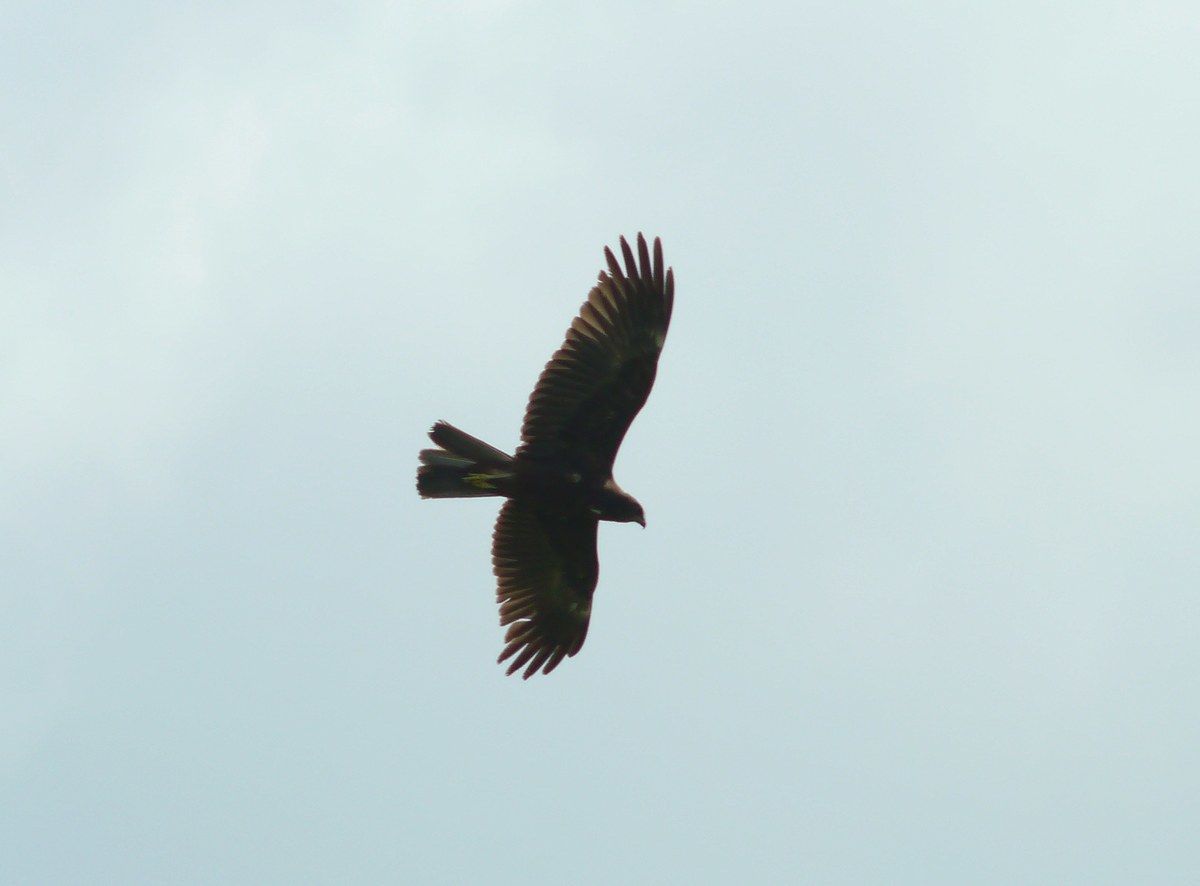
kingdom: Animalia
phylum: Chordata
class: Aves
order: Accipitriformes
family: Accipitridae
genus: Circus
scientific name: Circus aeruginosus
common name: Western marsh harrier
